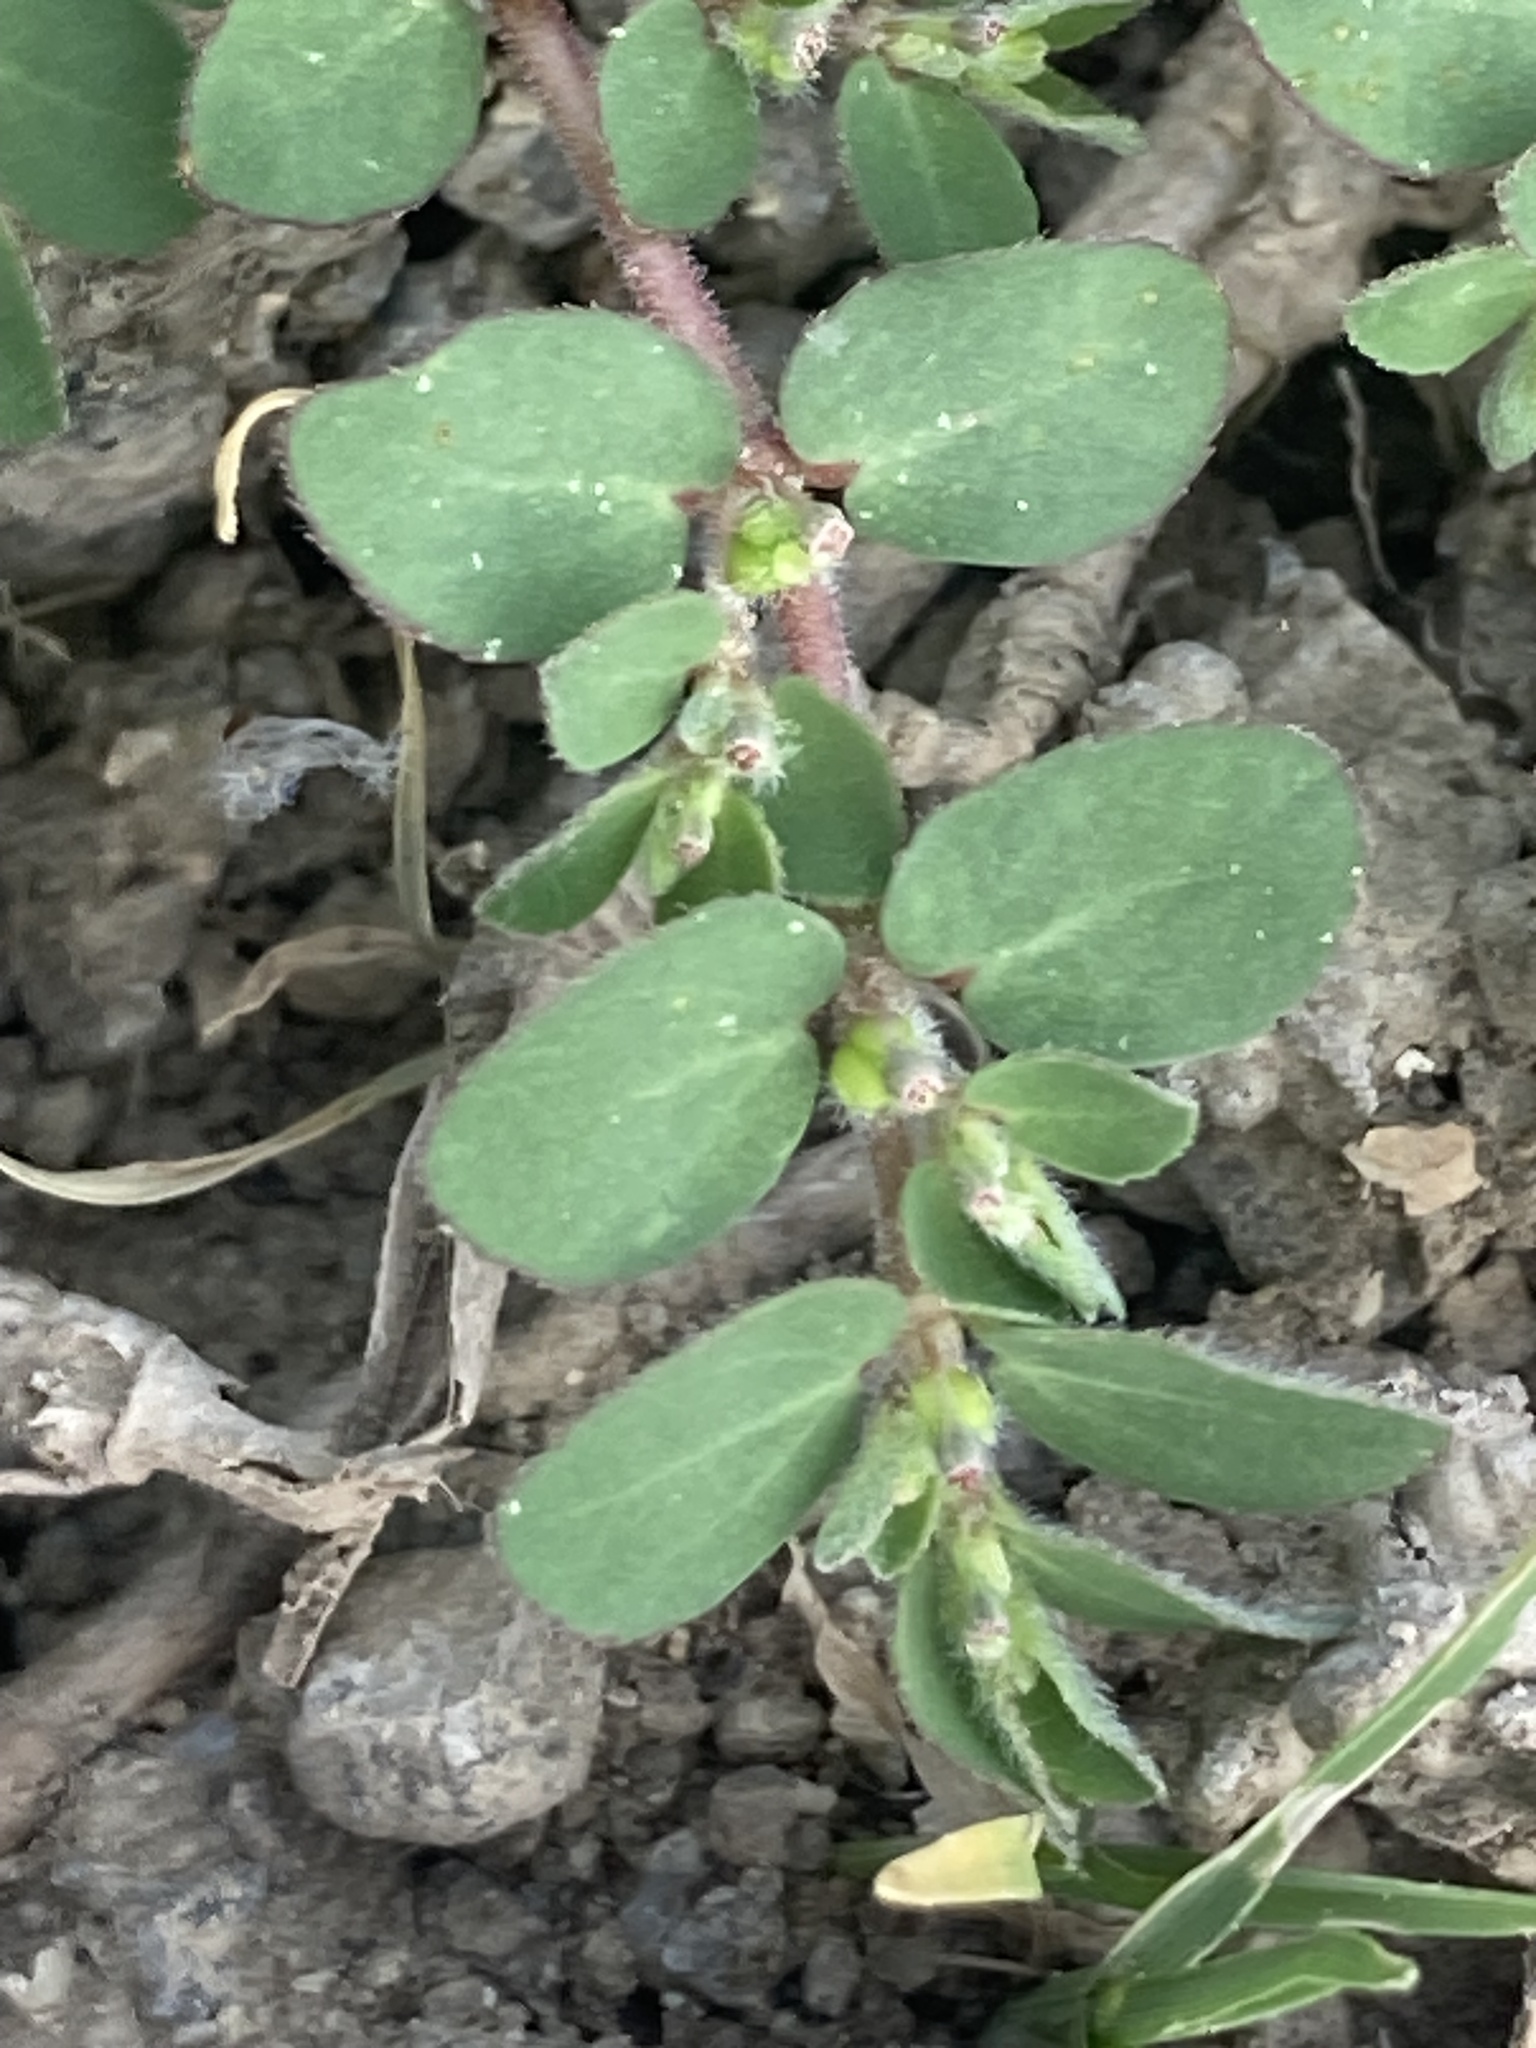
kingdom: Plantae
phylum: Tracheophyta
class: Magnoliopsida
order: Malpighiales
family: Euphorbiaceae
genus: Euphorbia
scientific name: Euphorbia prostrata
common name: Prostrate sandmat
